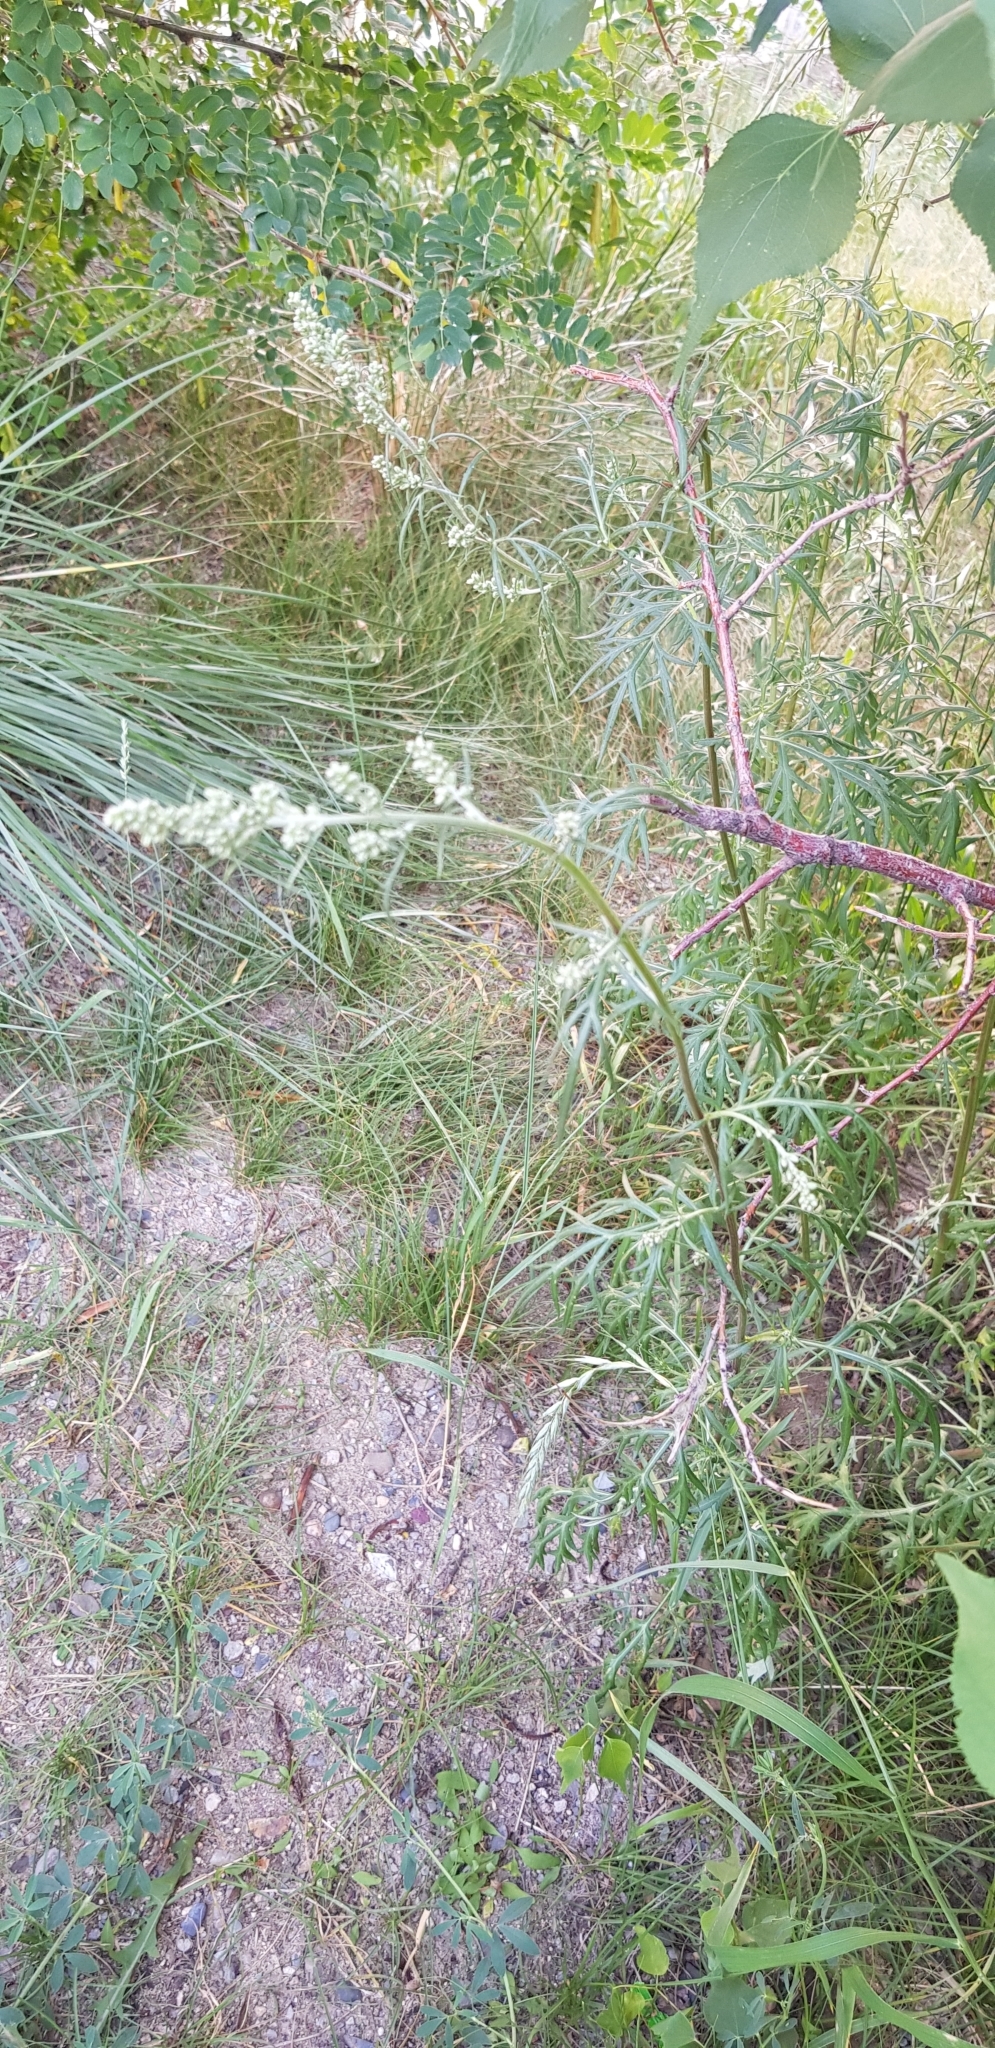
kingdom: Plantae
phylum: Tracheophyta
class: Magnoliopsida
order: Asterales
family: Asteraceae
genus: Artemisia
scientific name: Artemisia sieversiana
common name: Sieversian wormwood
